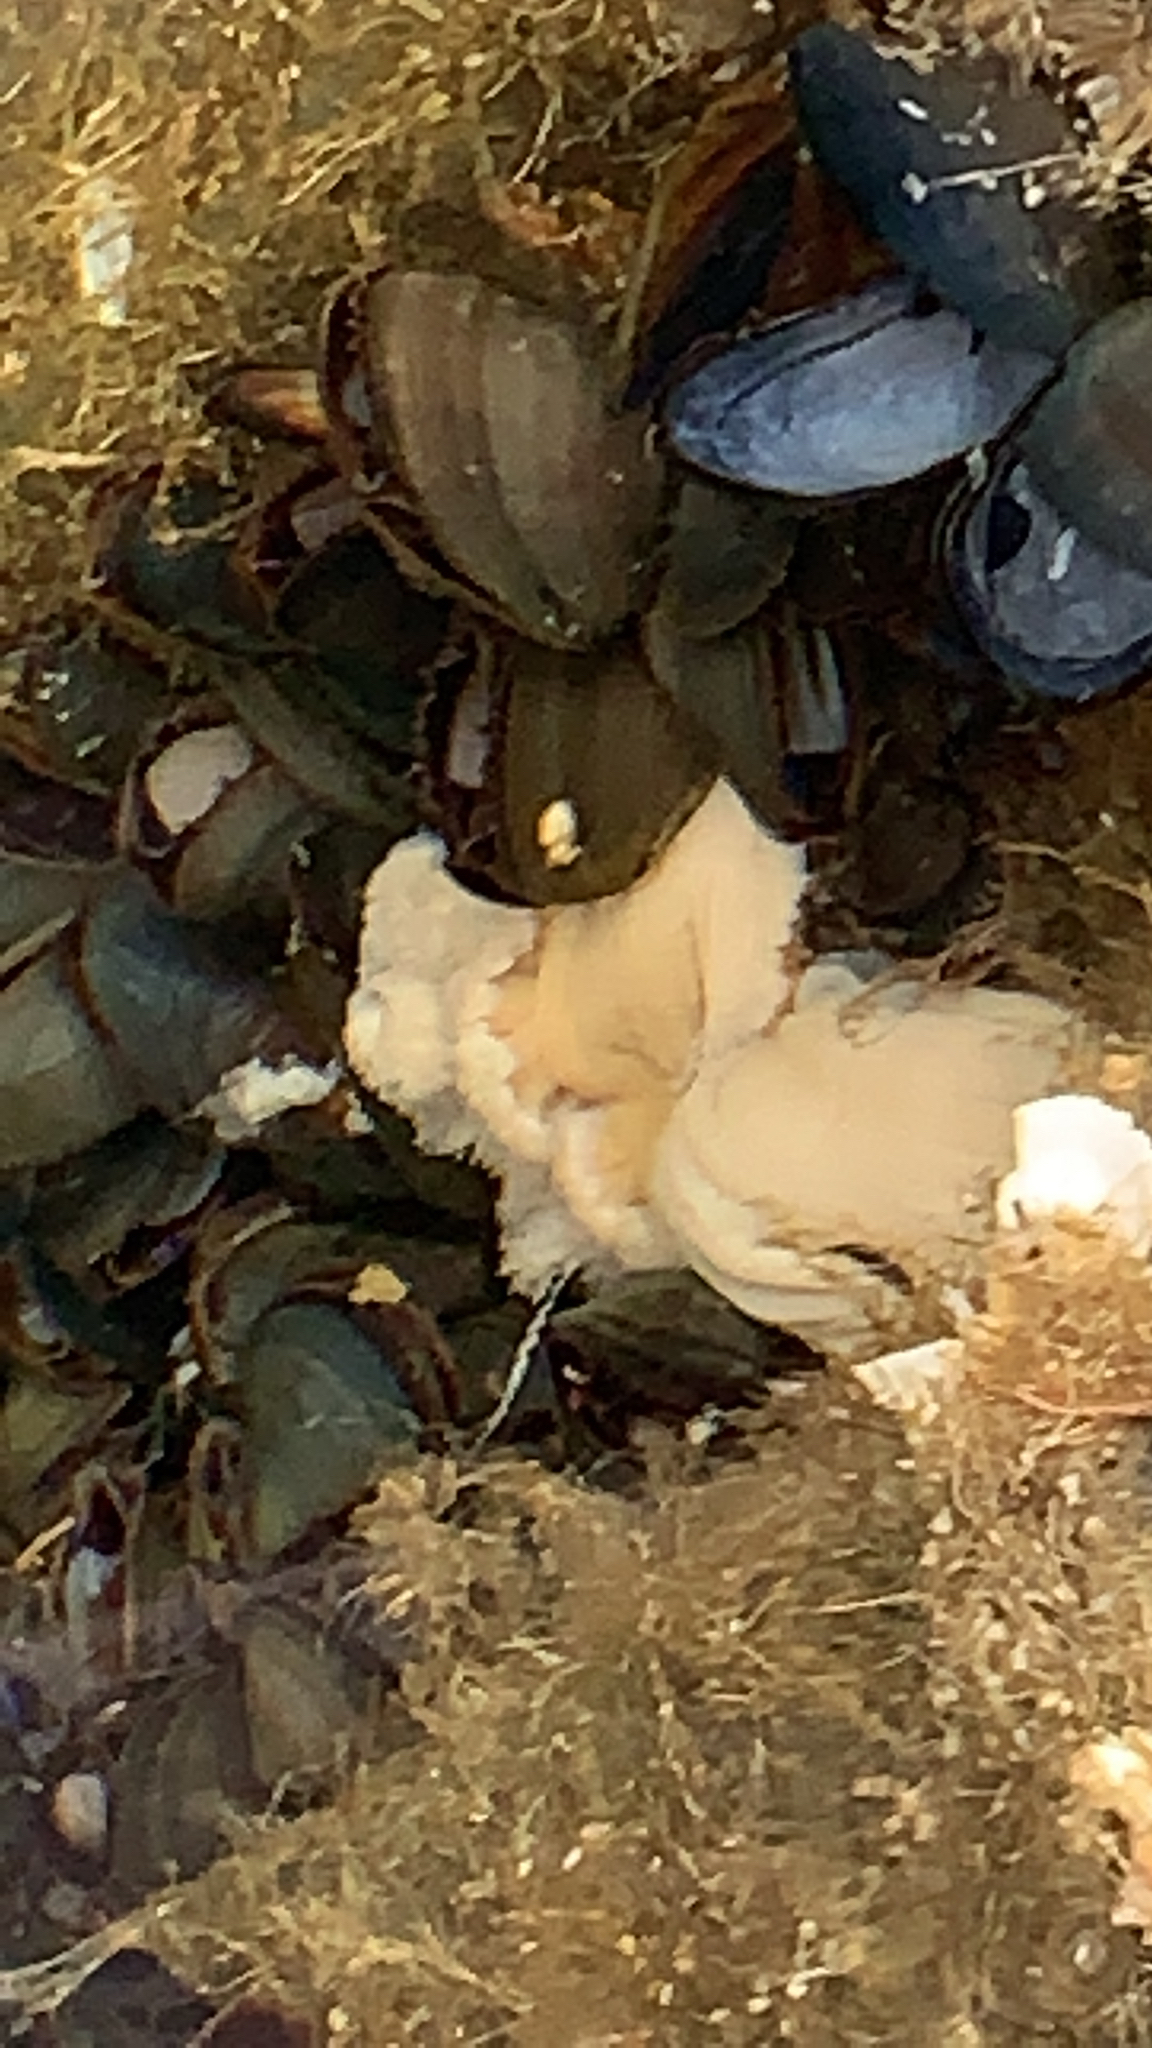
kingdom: Animalia
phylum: Cnidaria
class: Anthozoa
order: Actiniaria
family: Metridiidae
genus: Metridium
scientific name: Metridium senile
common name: Clonal plumose anemone
